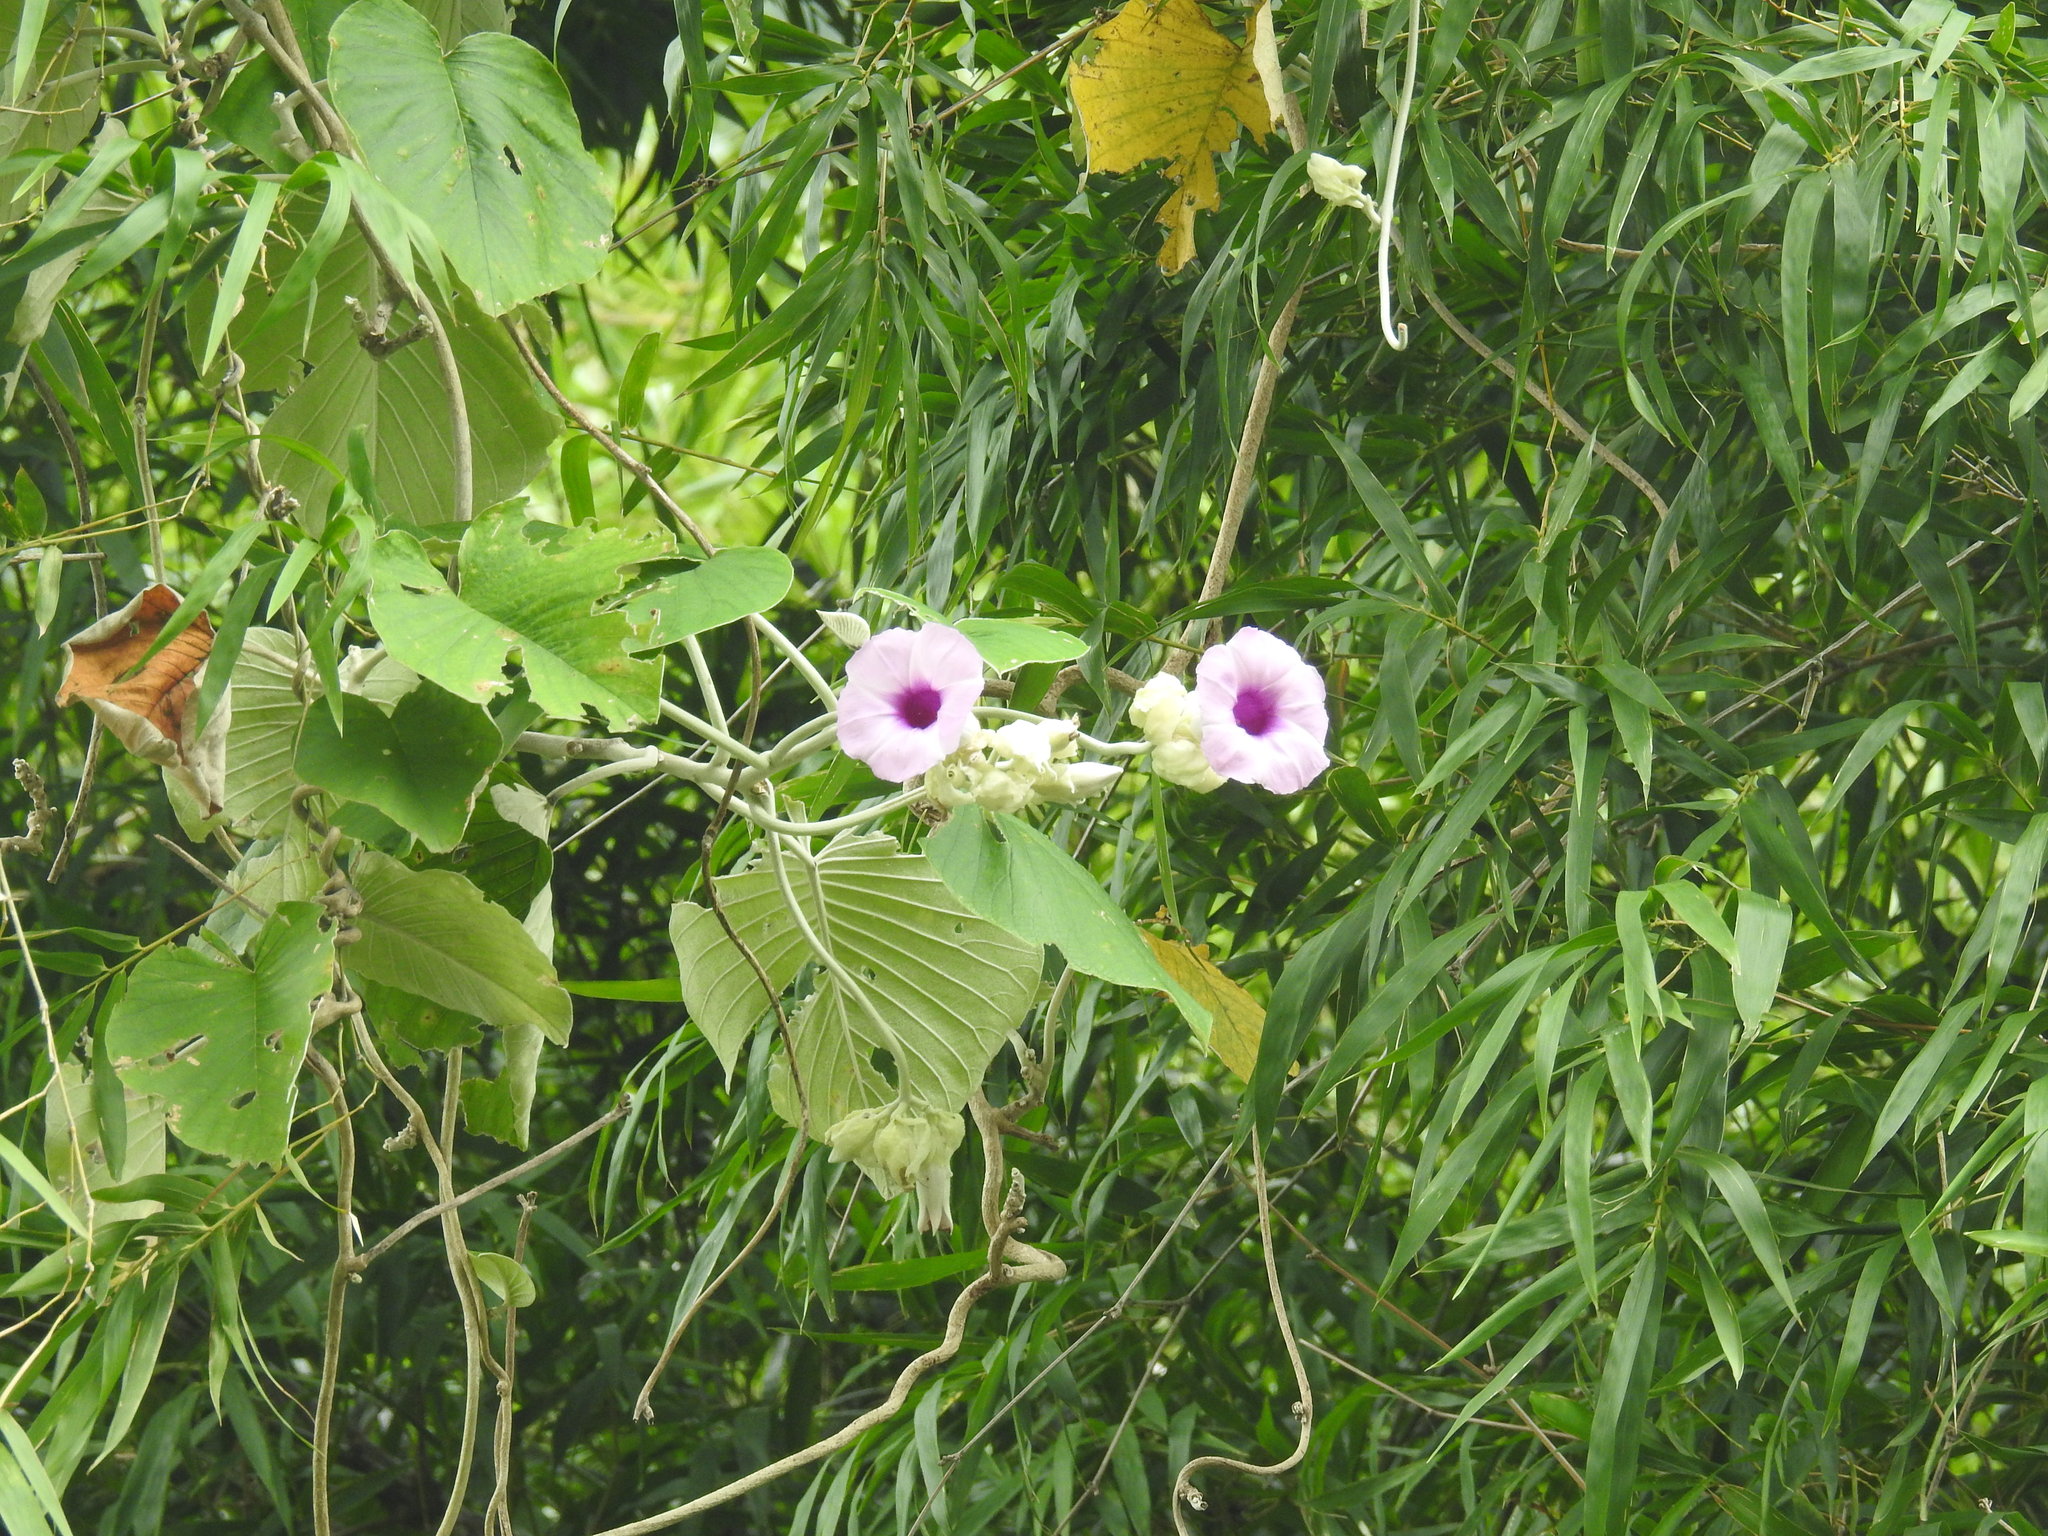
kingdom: Plantae
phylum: Tracheophyta
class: Magnoliopsida
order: Solanales
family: Convolvulaceae
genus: Argyreia
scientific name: Argyreia nervosa
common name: Elephant creeper
